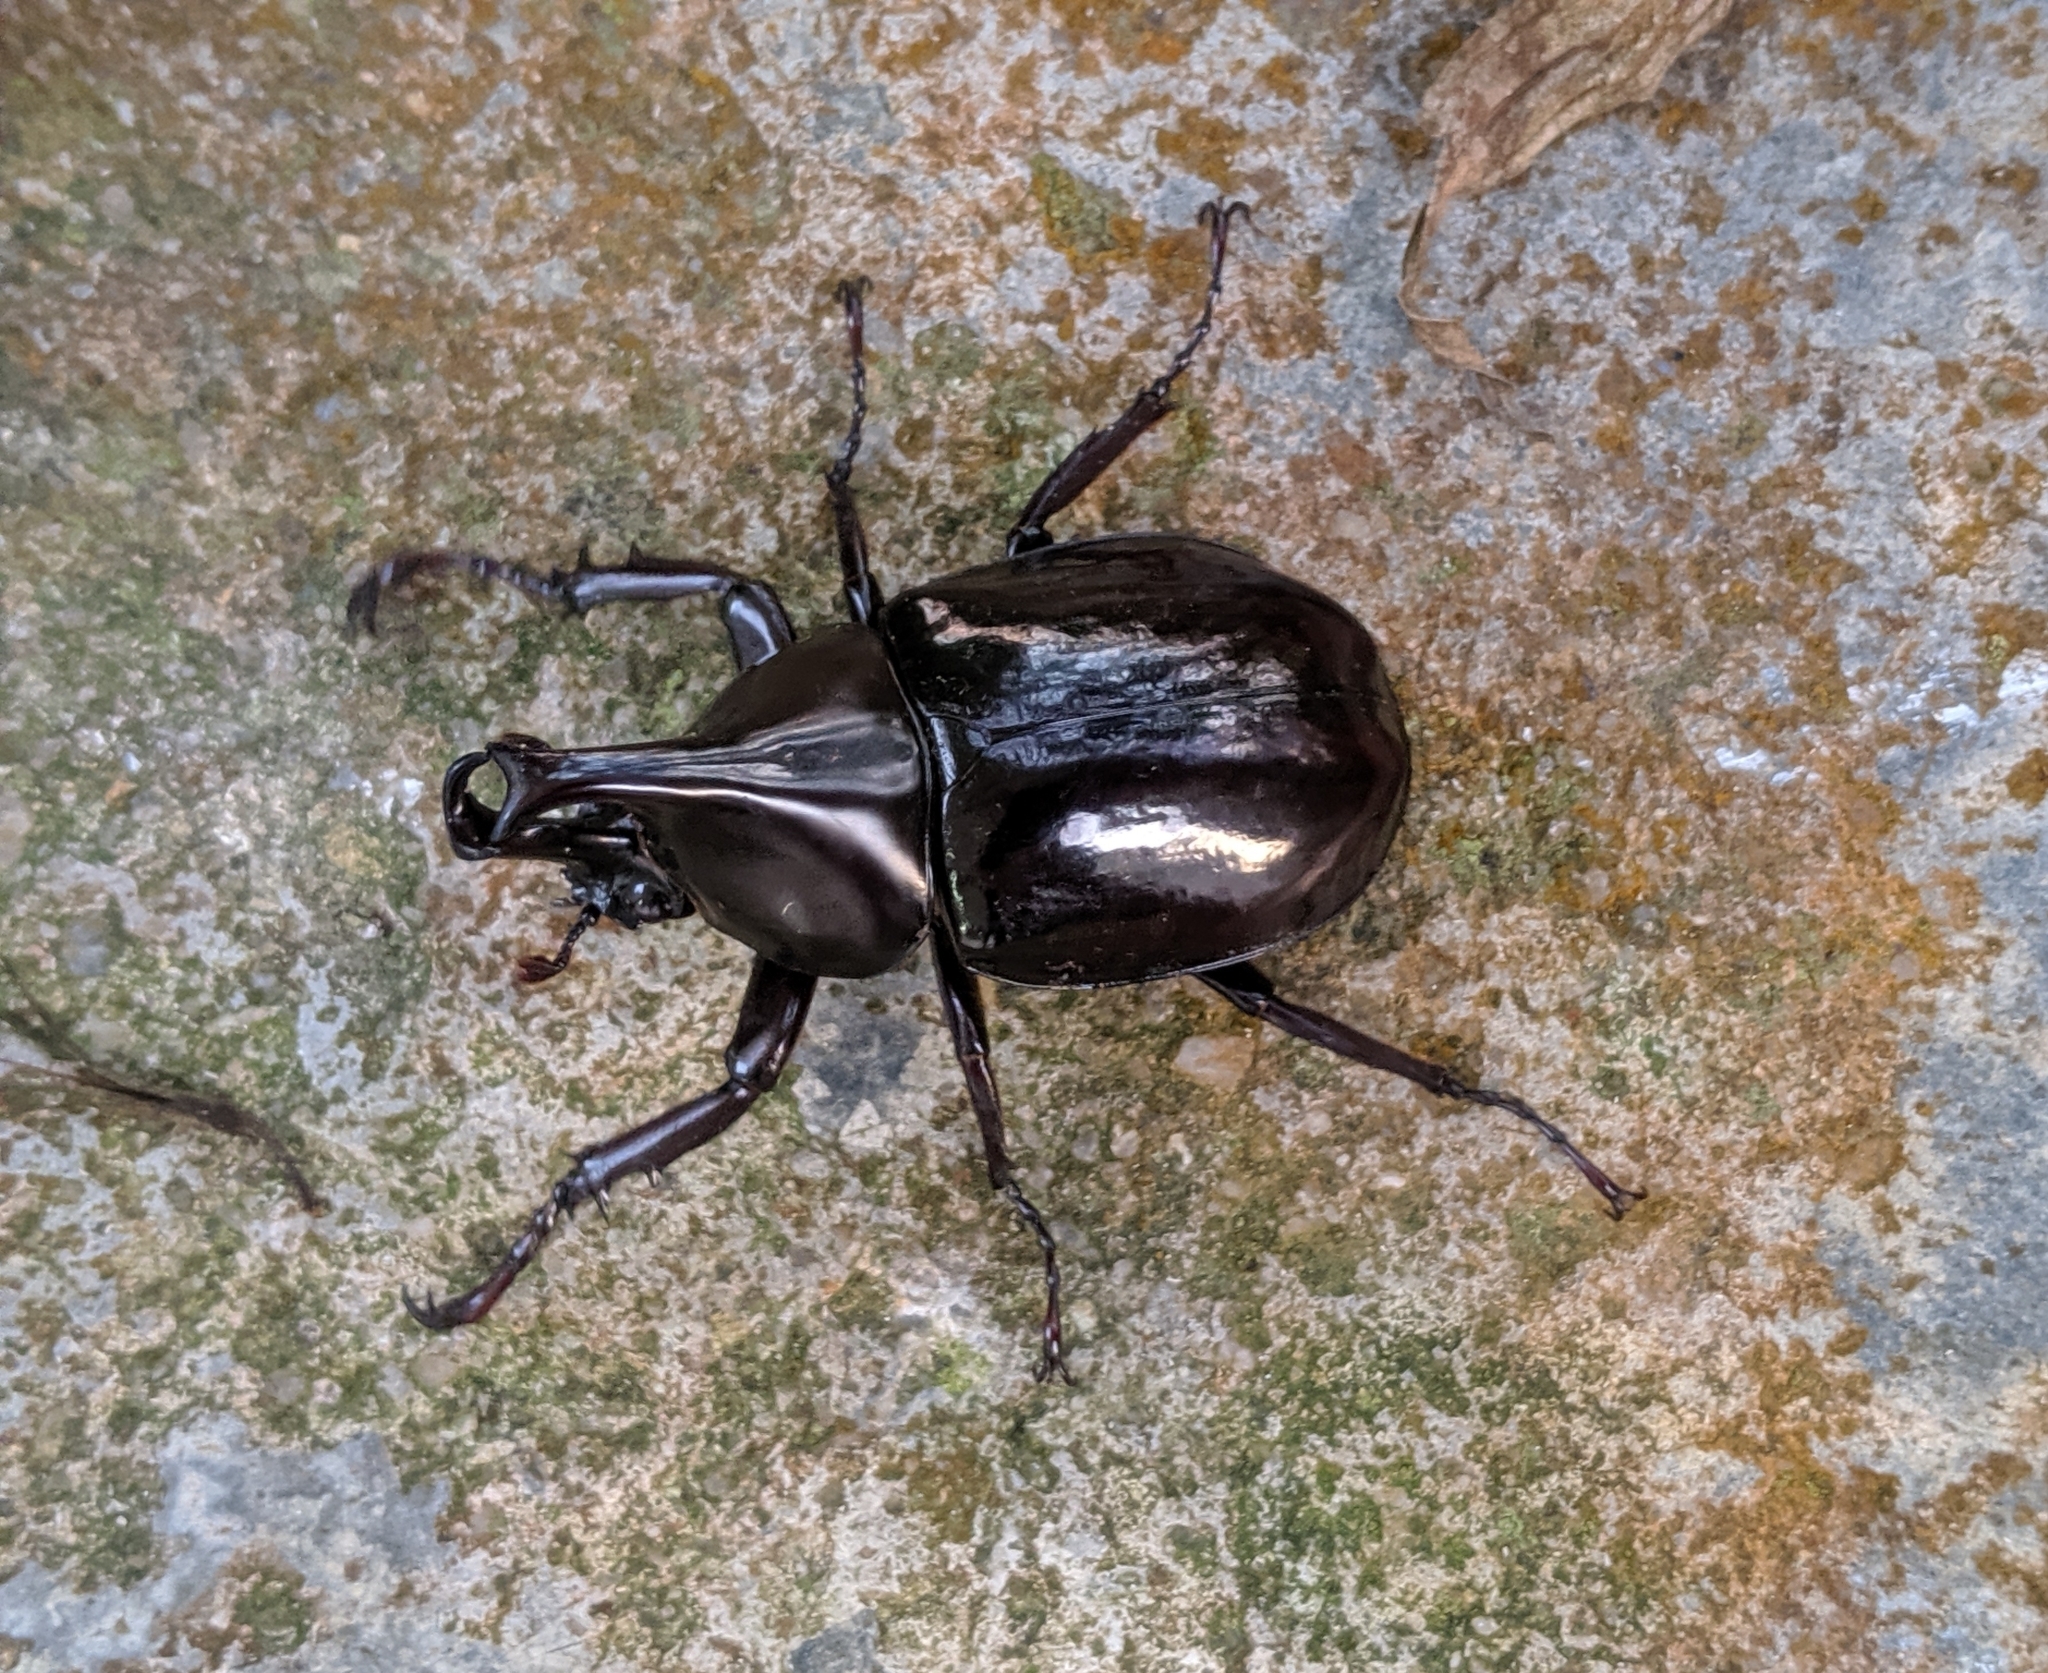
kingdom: Animalia
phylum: Arthropoda
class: Insecta
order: Coleoptera
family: Scarabaeidae
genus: Xylotrupes
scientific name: Xylotrupes sumatrensis
